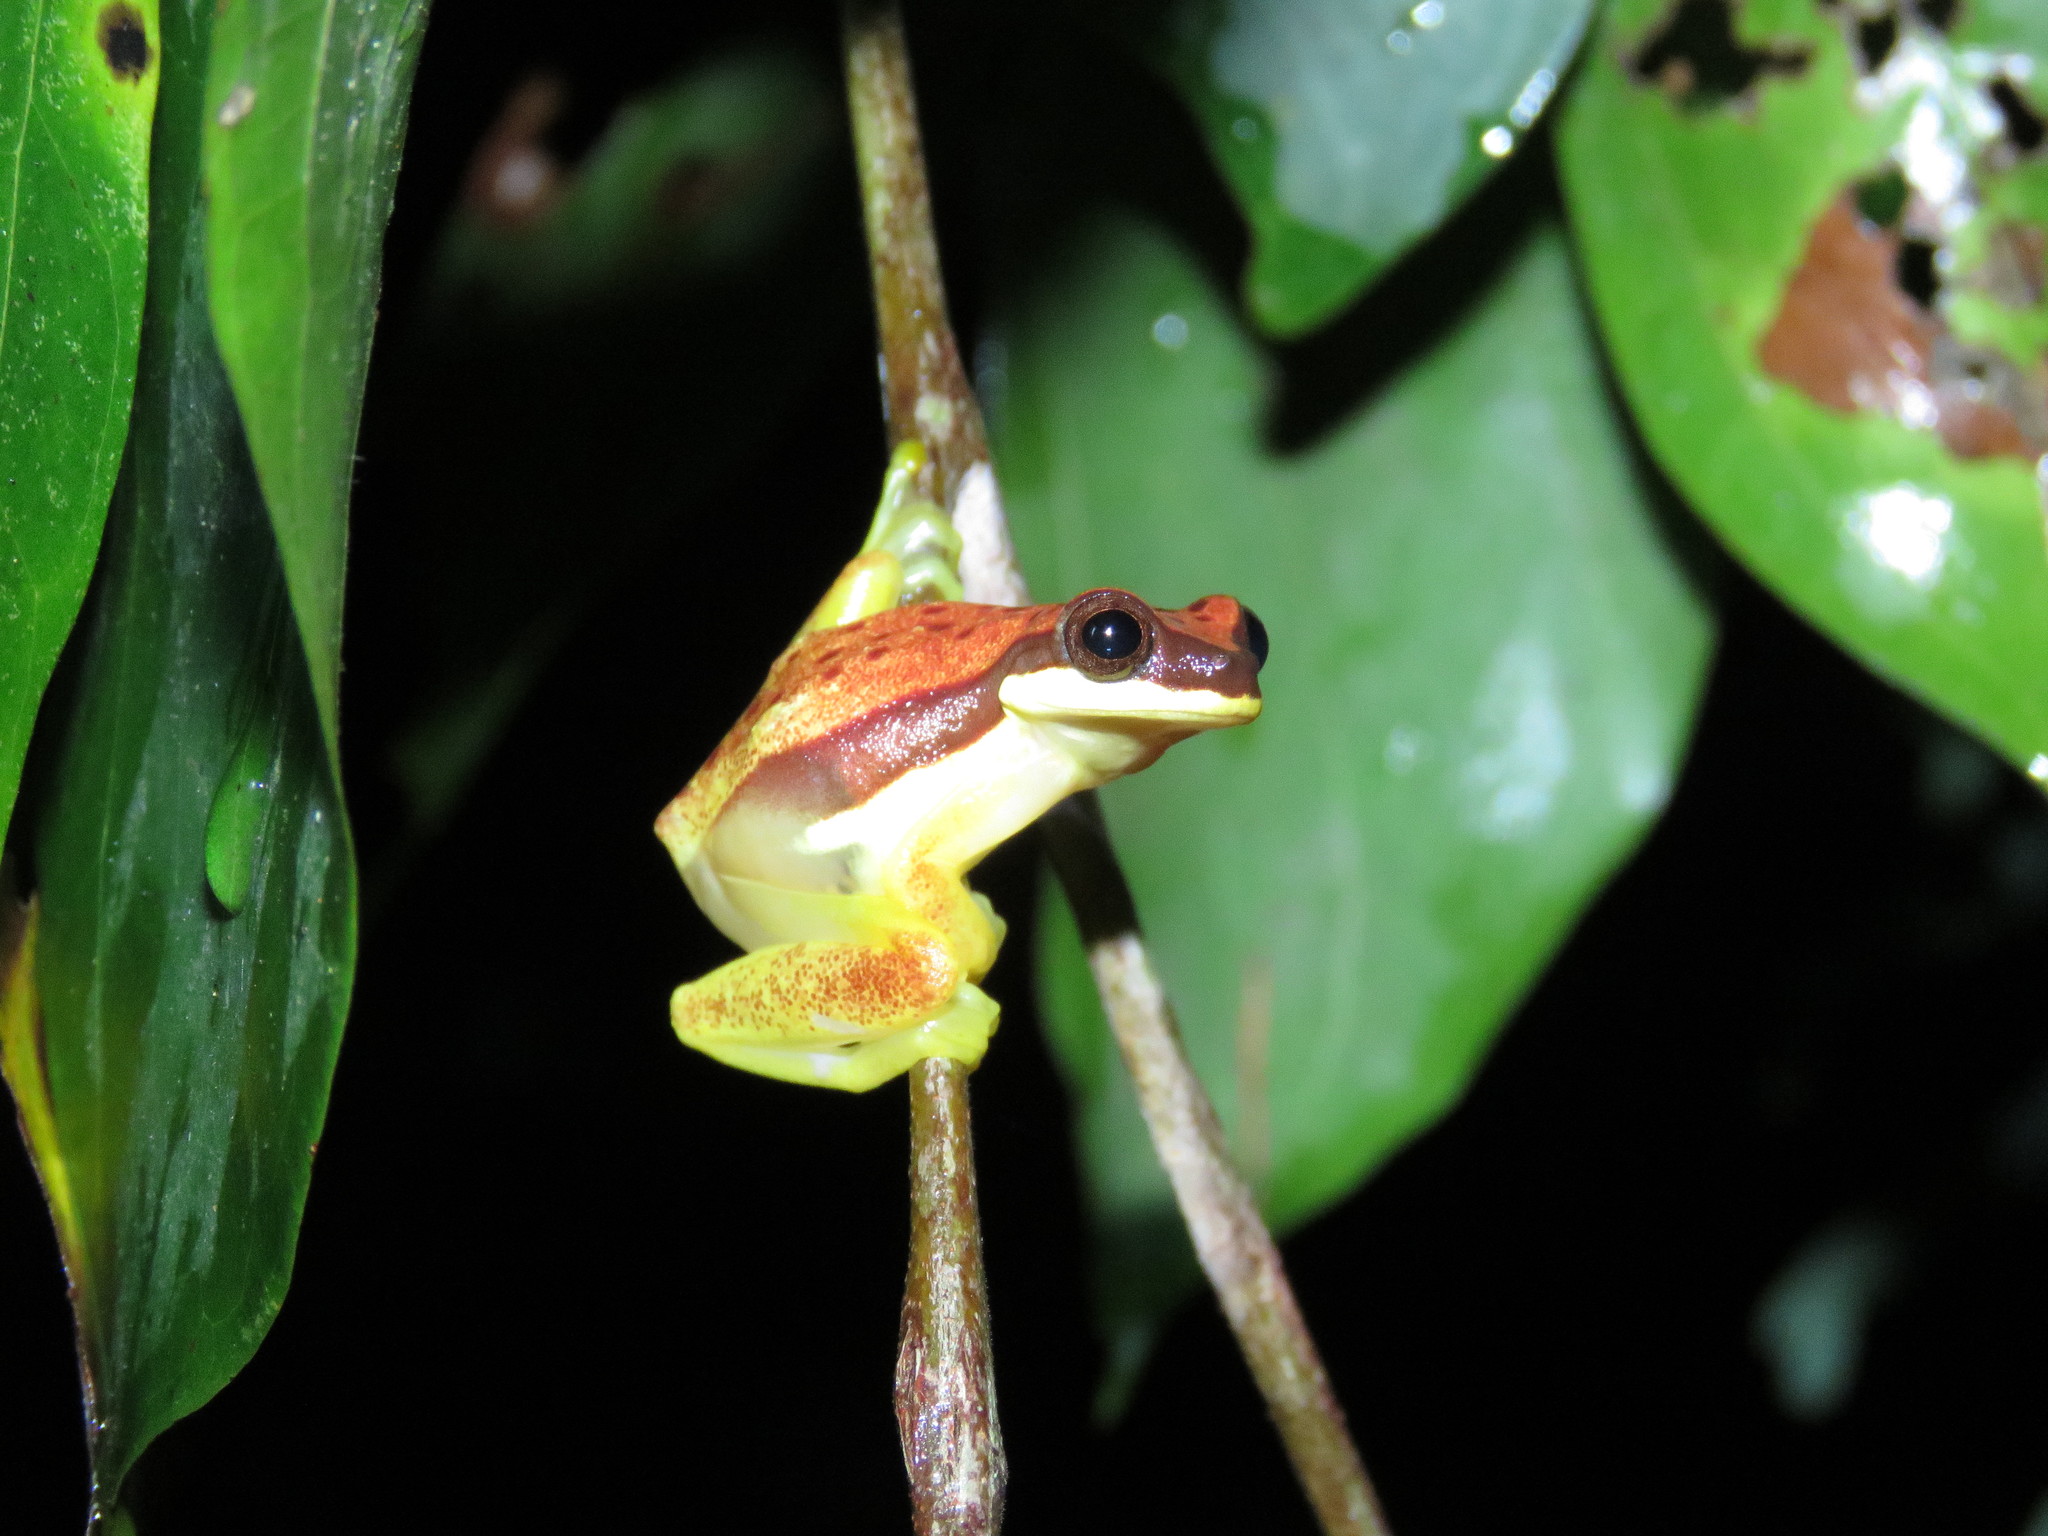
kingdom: Animalia
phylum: Chordata
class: Amphibia
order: Anura
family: Hylidae
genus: Dendropsophus
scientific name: Dendropsophus rhodopeplus
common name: Red-skirted treefrog
